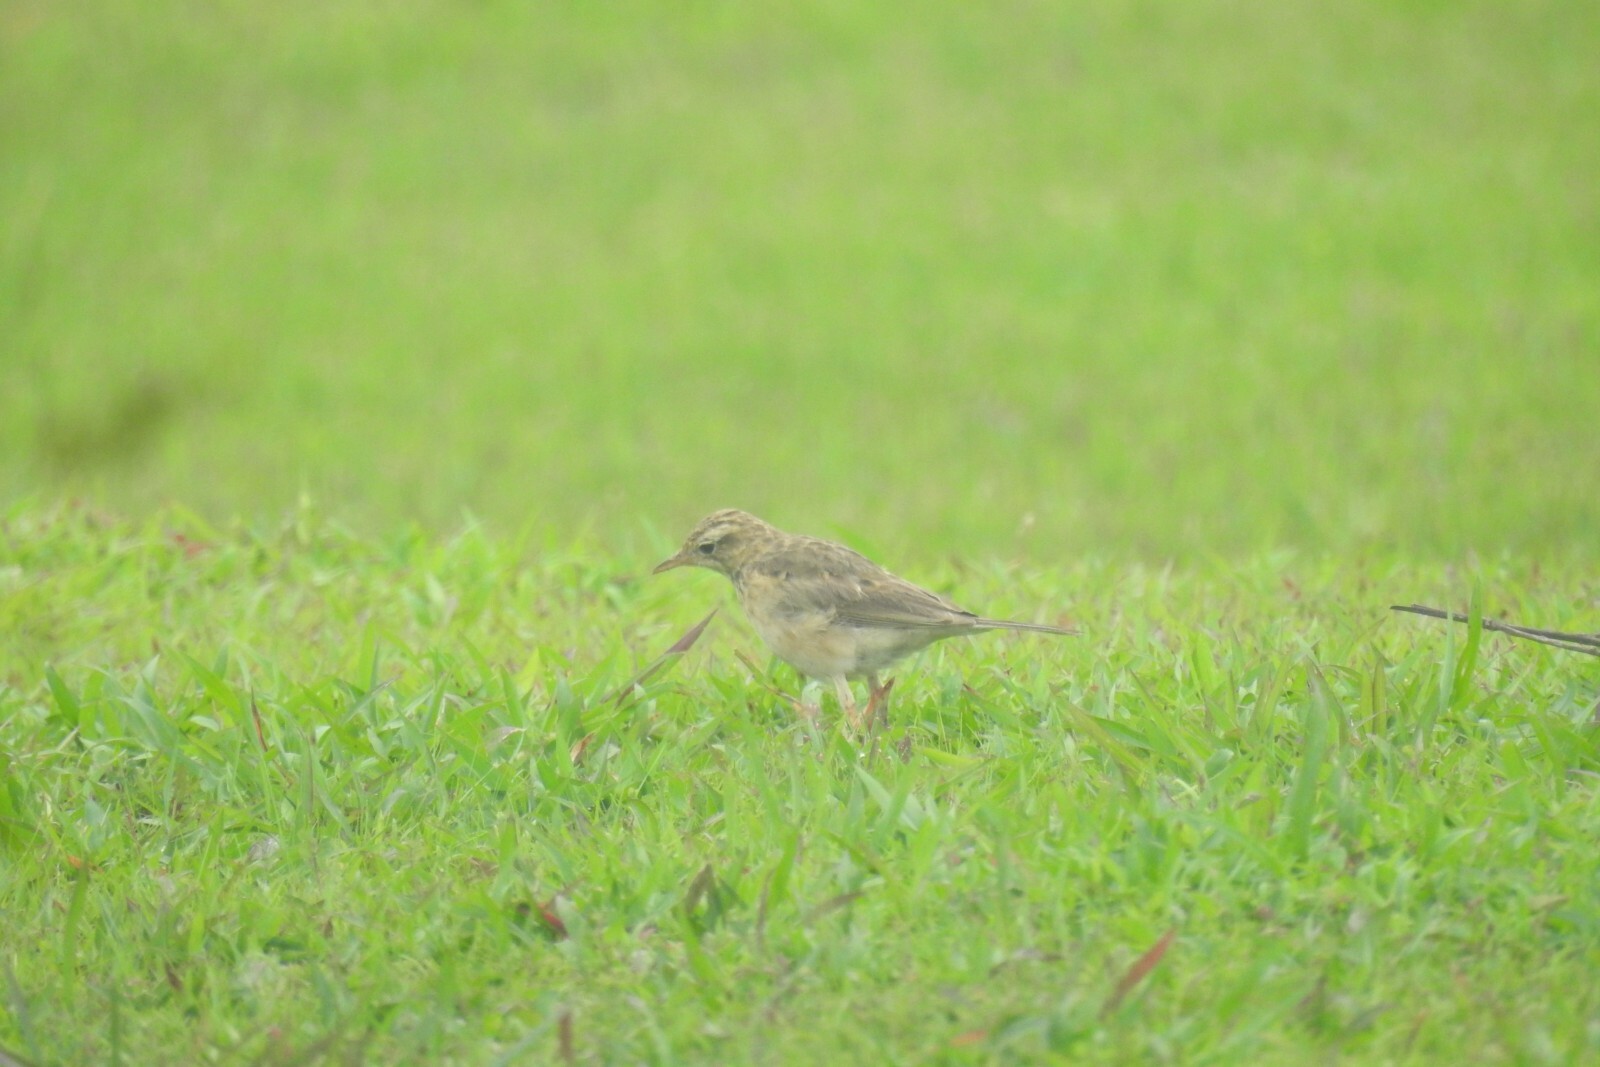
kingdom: Animalia
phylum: Chordata
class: Aves
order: Passeriformes
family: Motacillidae
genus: Anthus
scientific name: Anthus rufulus
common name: Paddyfield pipit
